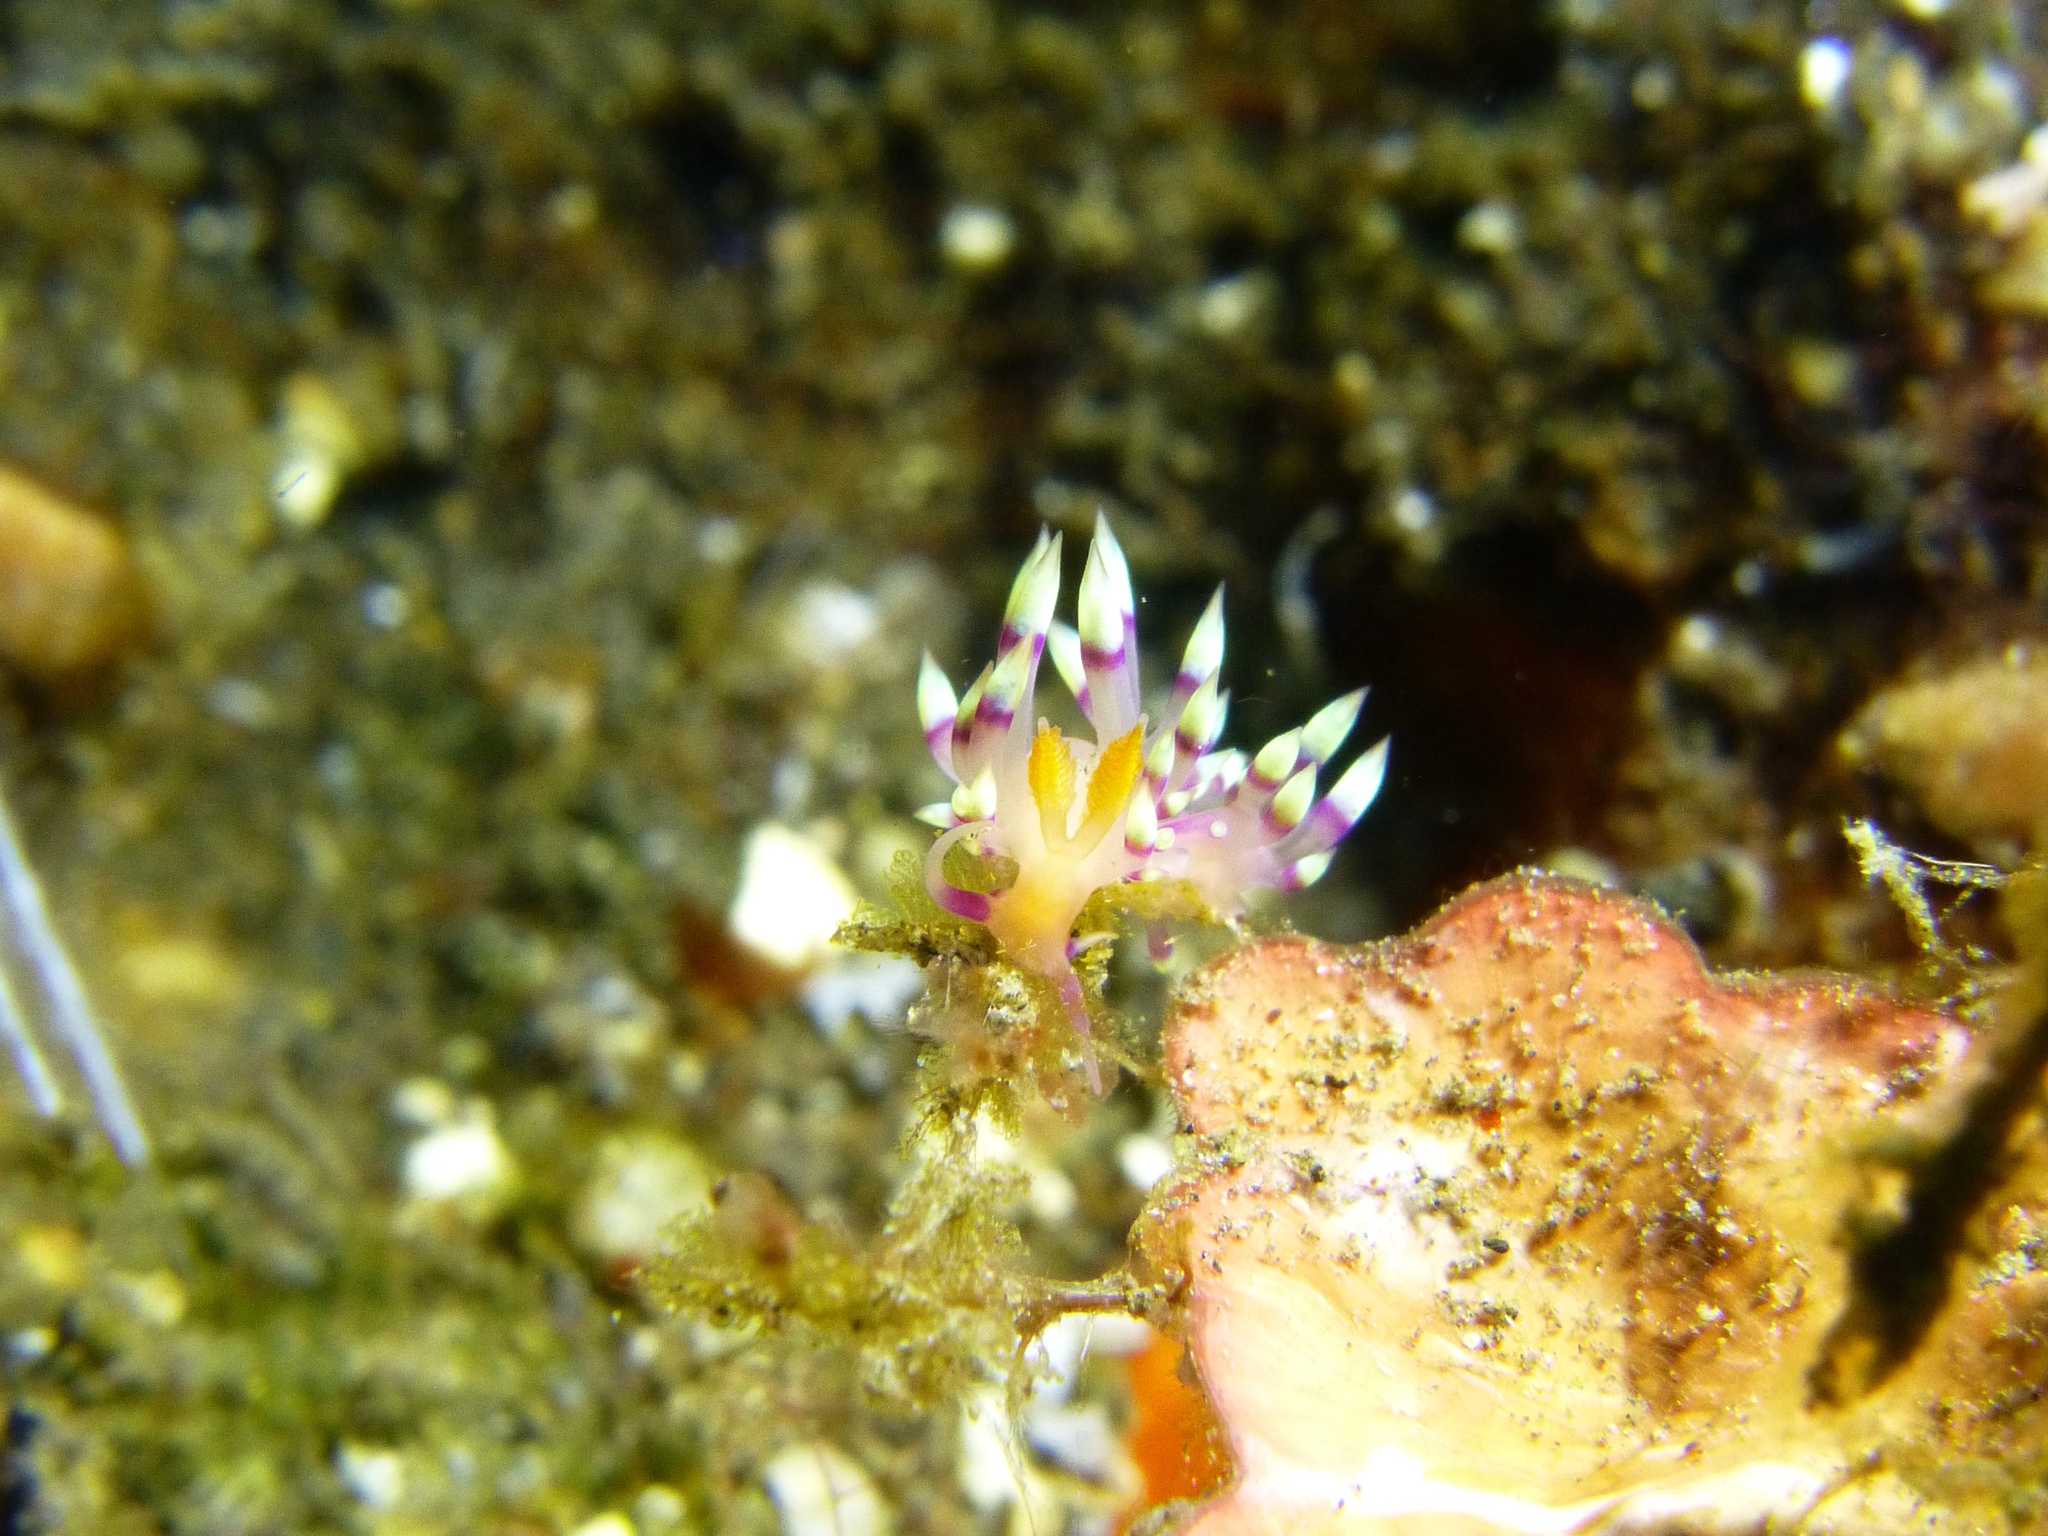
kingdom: Animalia
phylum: Mollusca
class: Gastropoda
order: Nudibranchia
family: Flabellinidae
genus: Coryphellina
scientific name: Coryphellina exoptata
